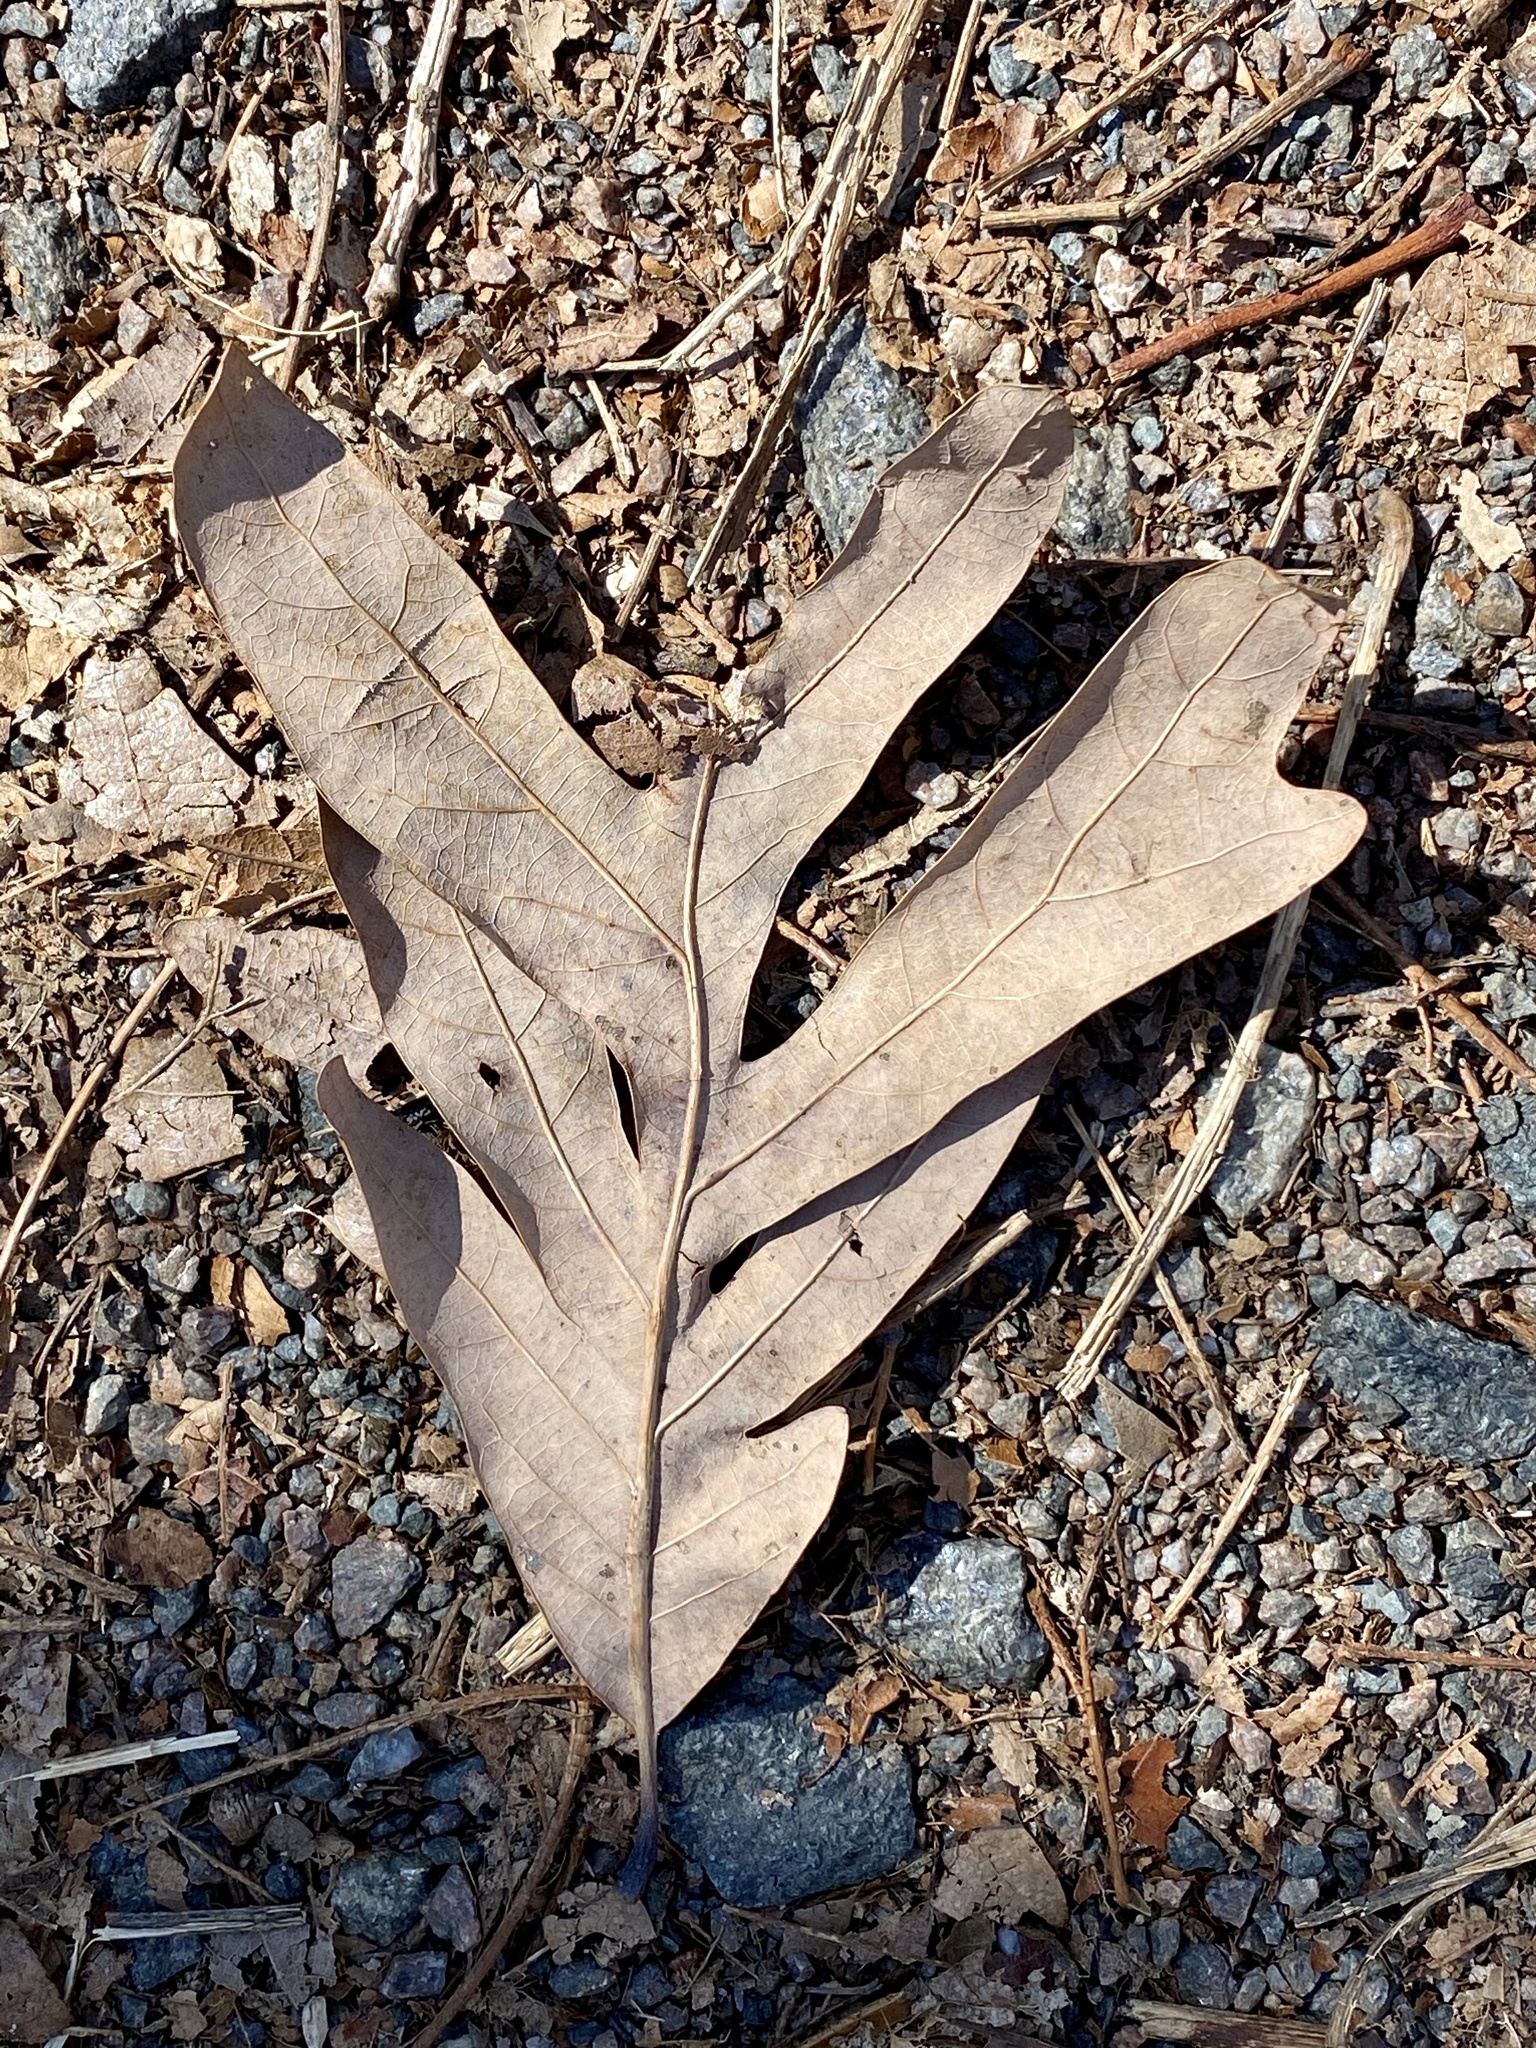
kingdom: Plantae
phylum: Tracheophyta
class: Magnoliopsida
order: Fagales
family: Fagaceae
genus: Quercus
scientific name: Quercus alba
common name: White oak
